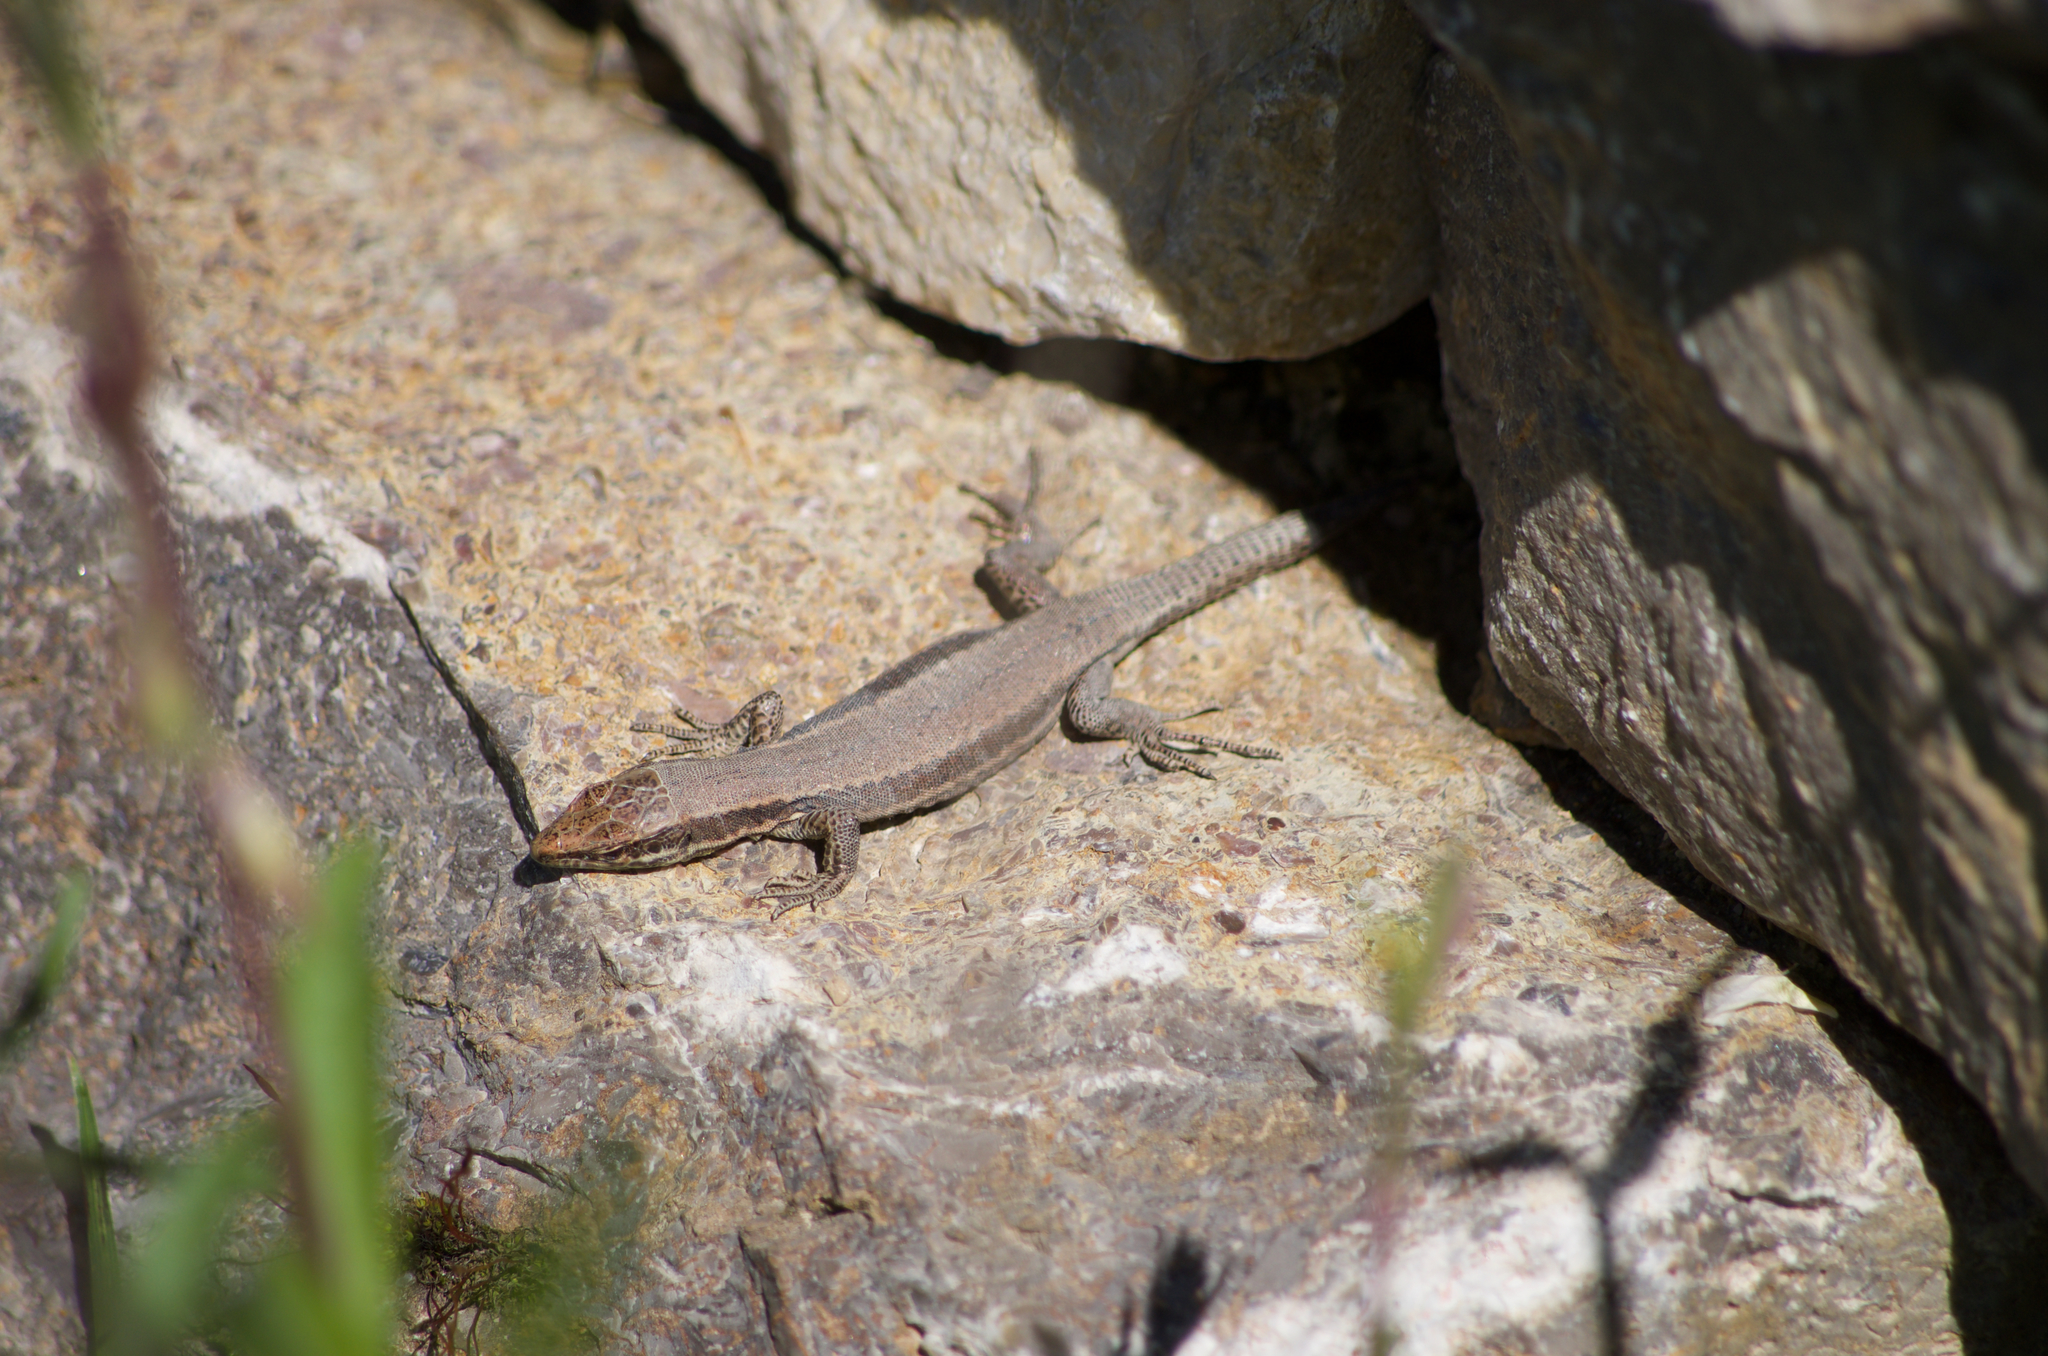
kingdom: Animalia
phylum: Chordata
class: Squamata
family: Lacertidae
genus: Podarcis
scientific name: Podarcis muralis
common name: Common wall lizard
